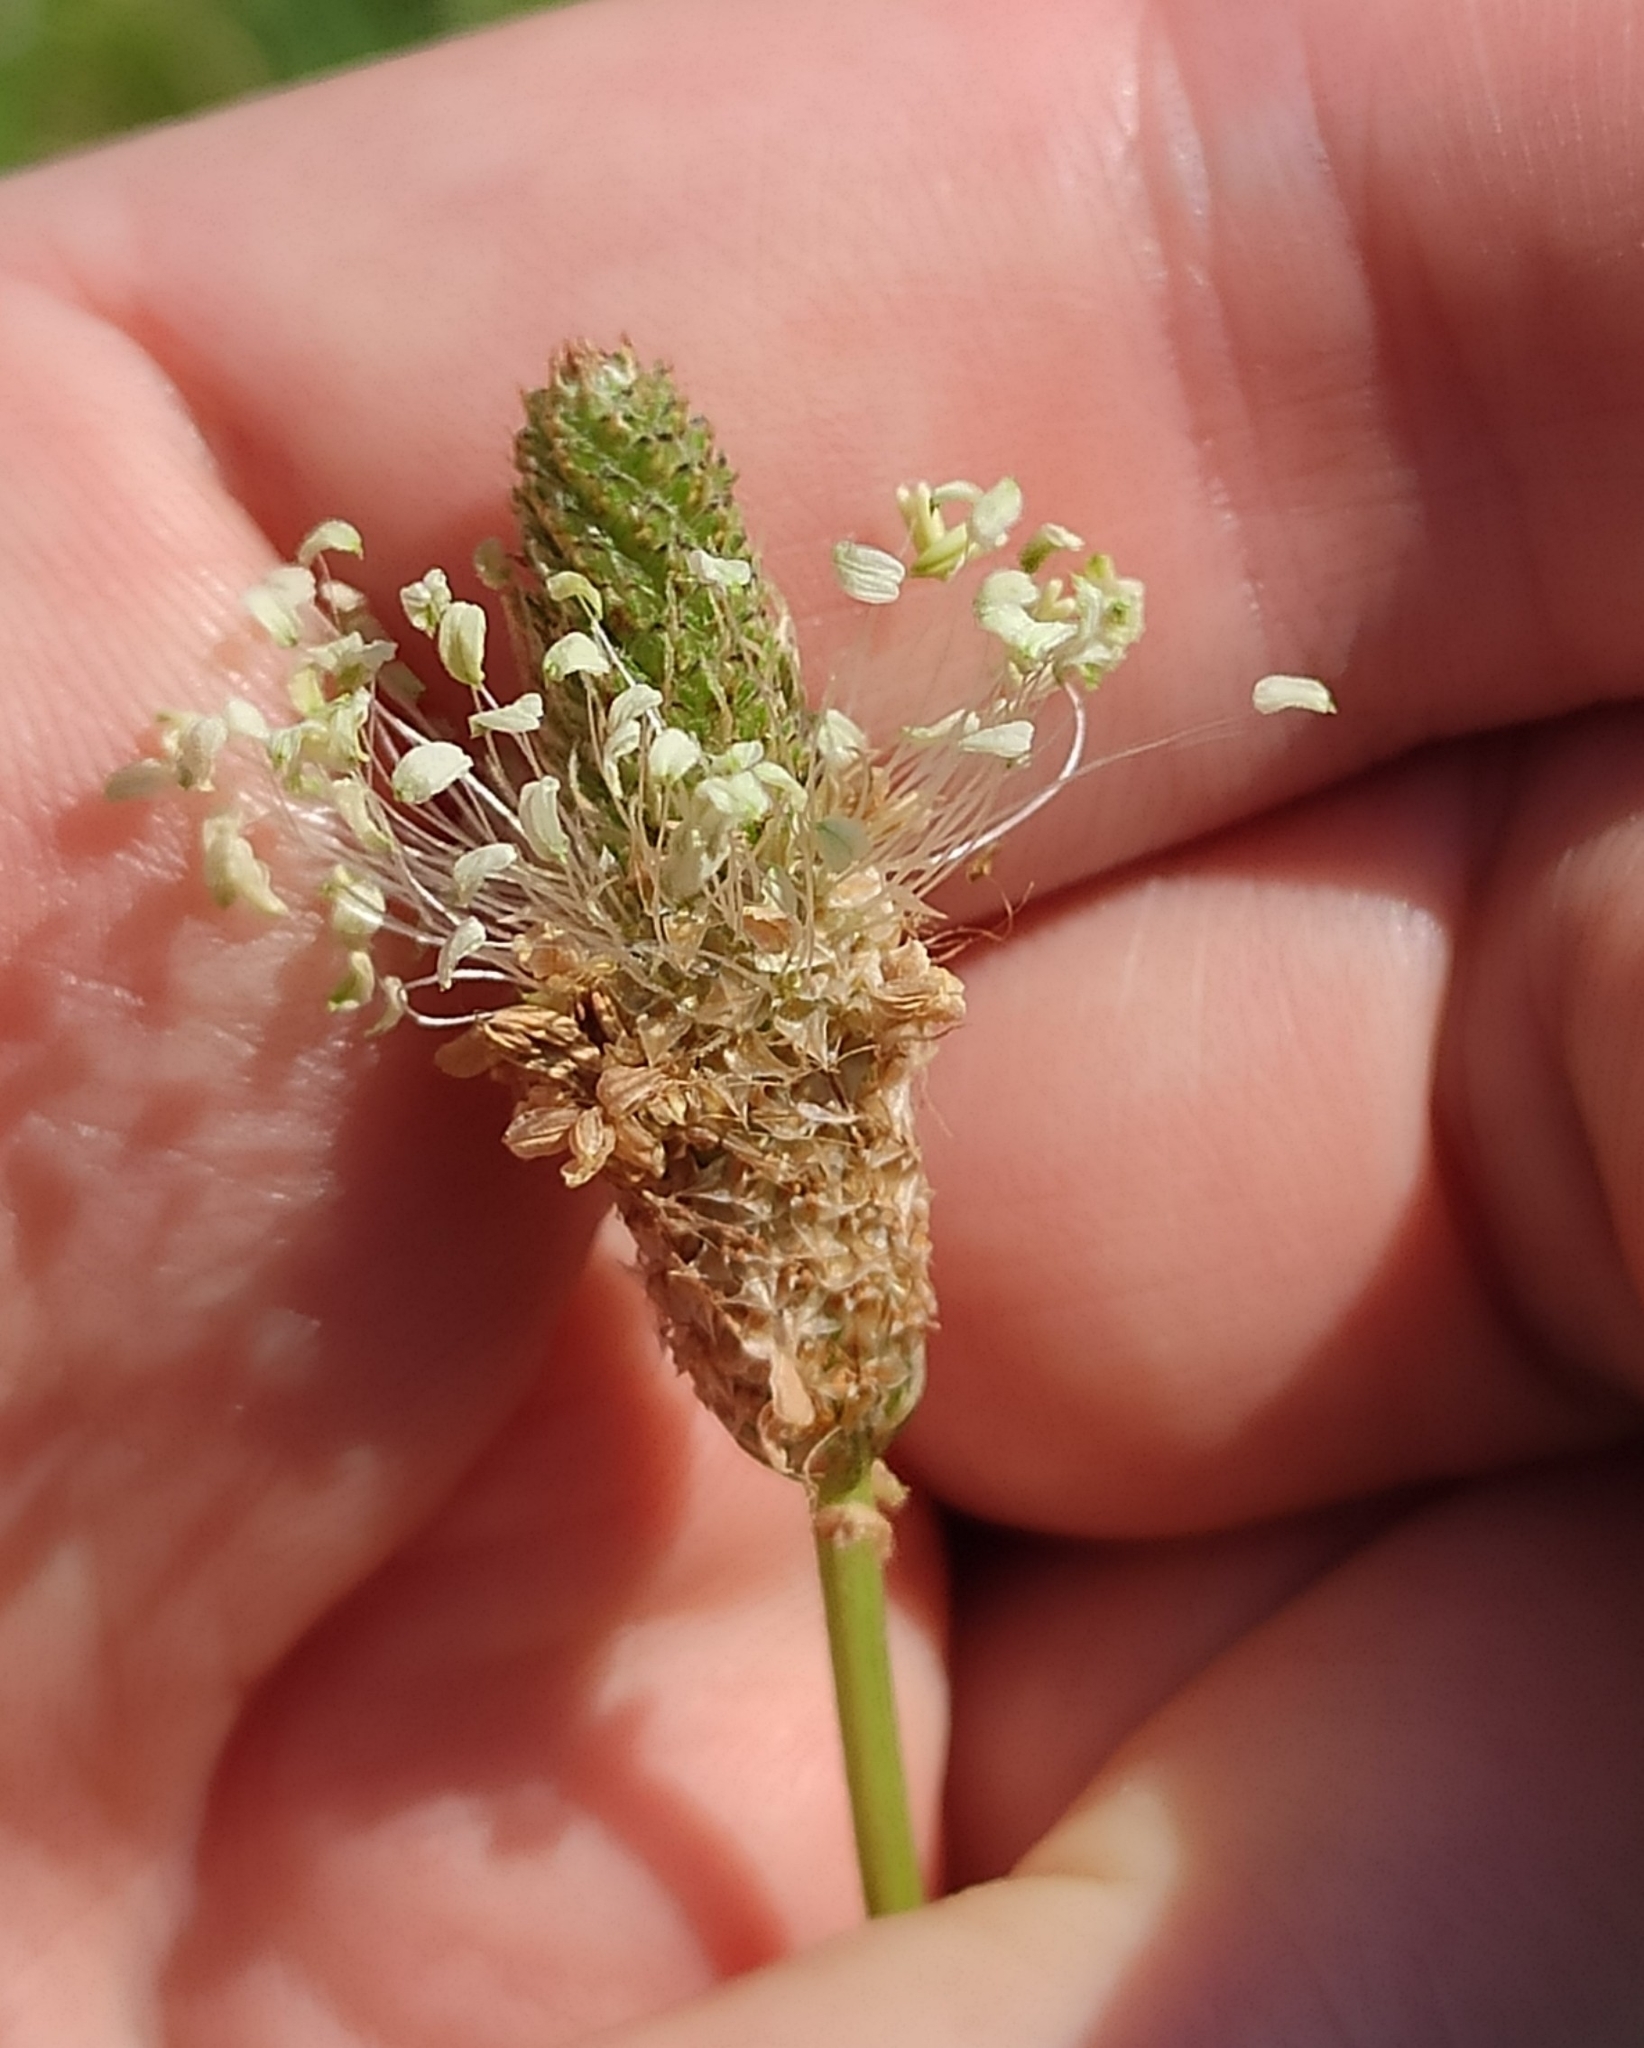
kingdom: Plantae
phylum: Tracheophyta
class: Magnoliopsida
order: Lamiales
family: Plantaginaceae
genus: Plantago
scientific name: Plantago lanceolata
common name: Ribwort plantain
